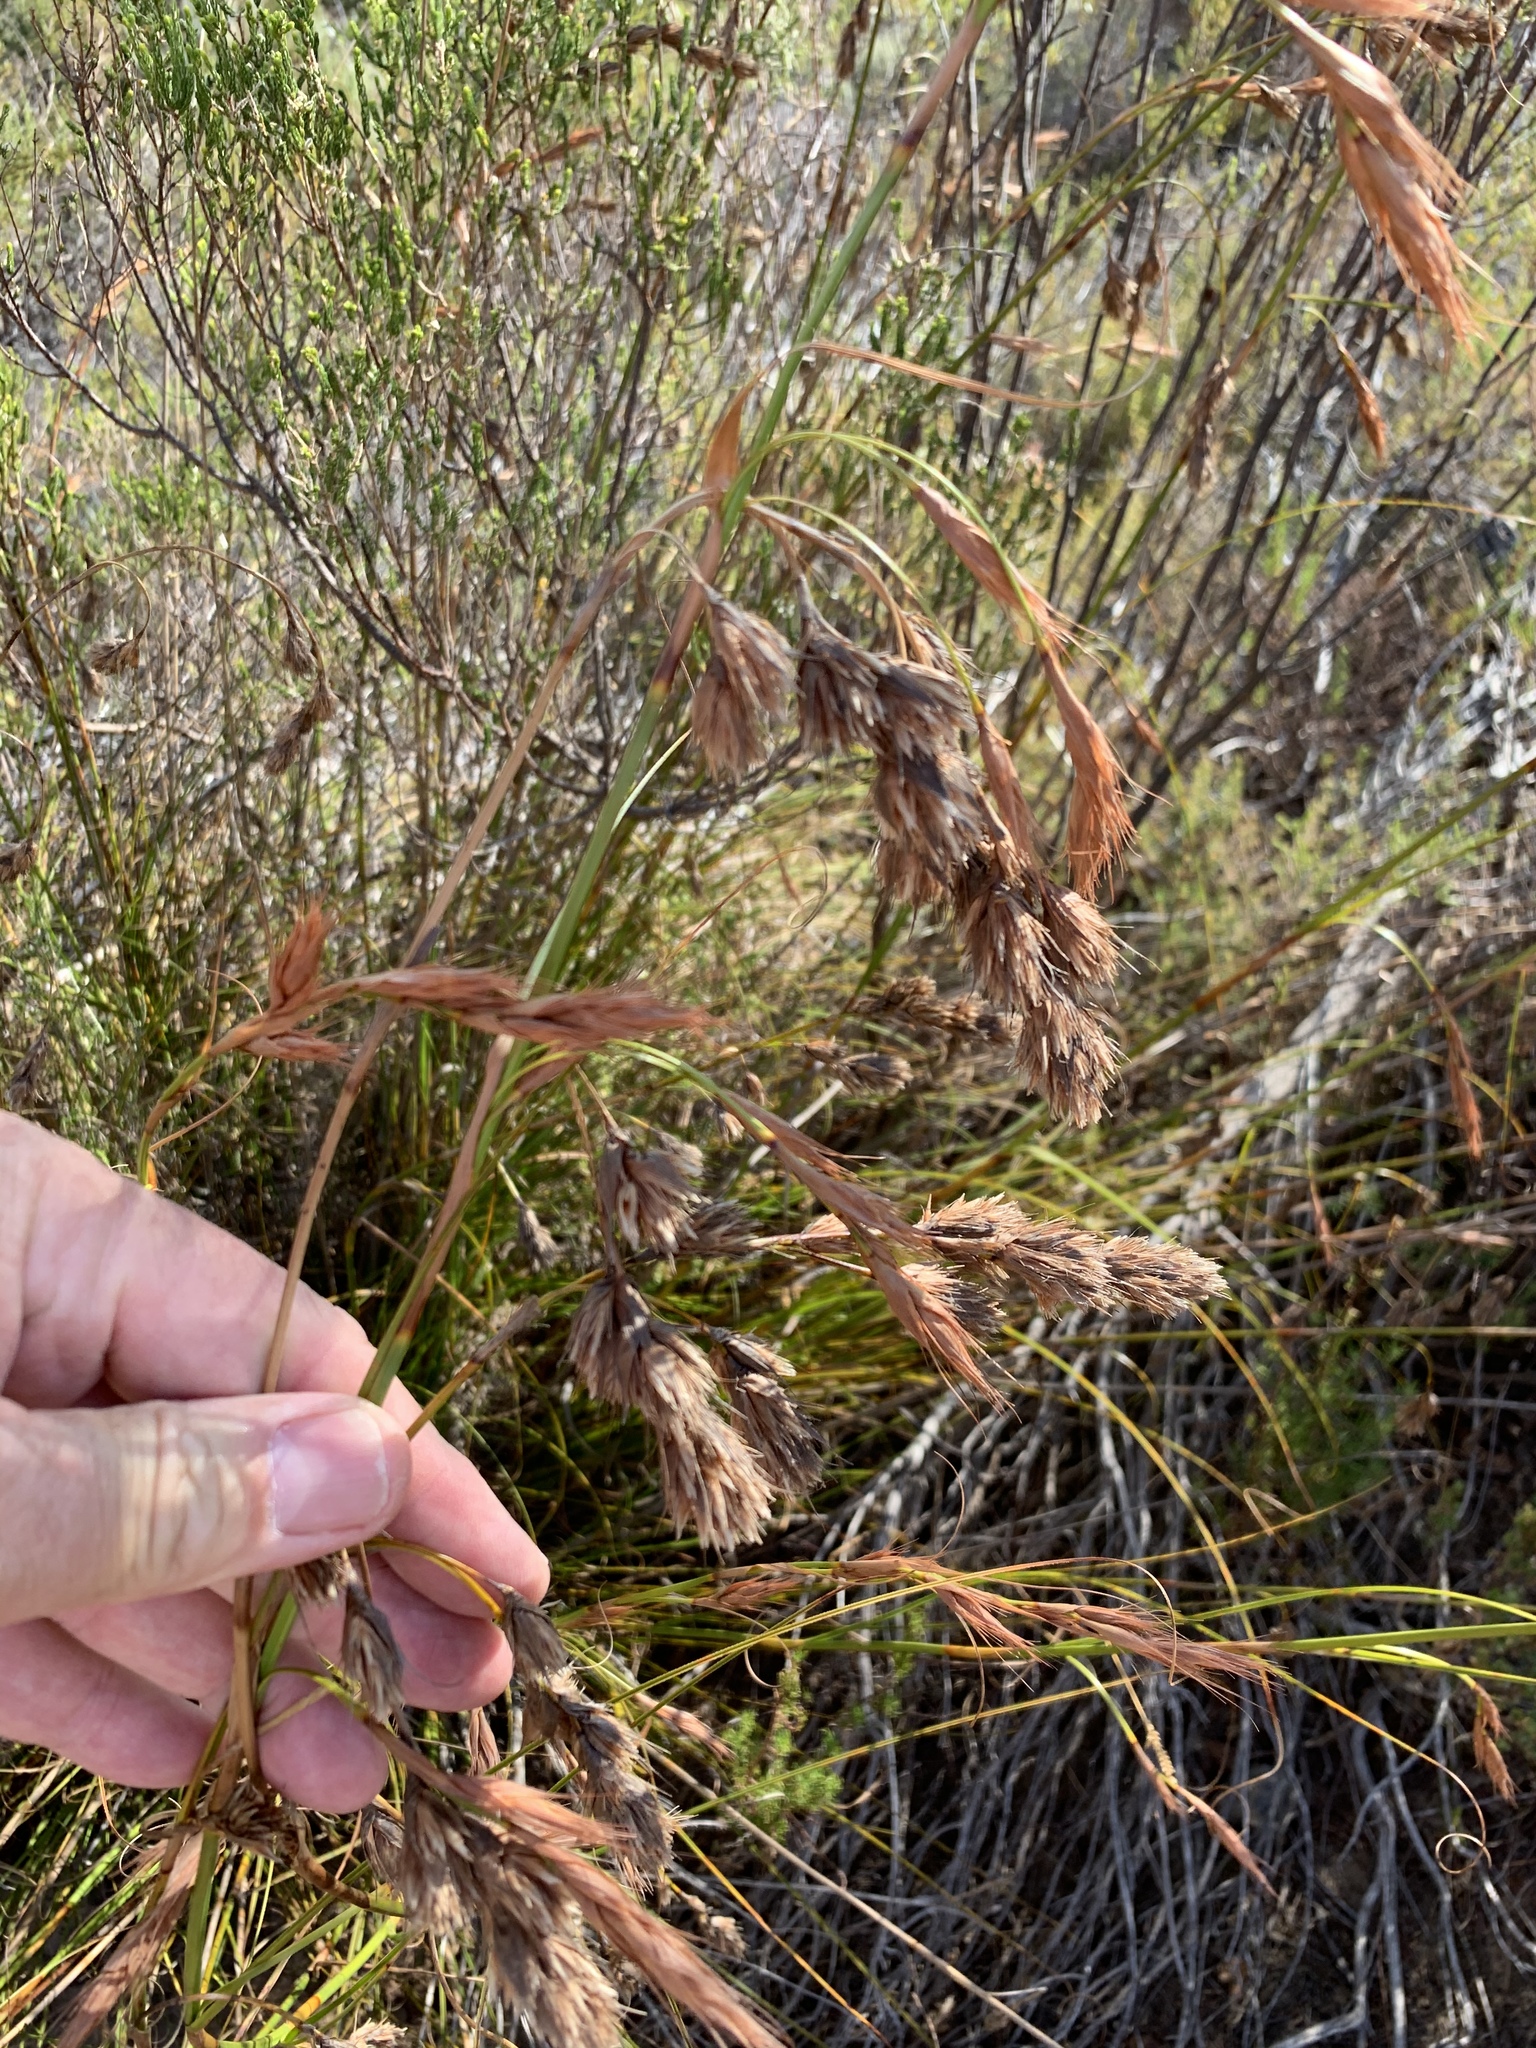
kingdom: Plantae
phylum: Tracheophyta
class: Liliopsida
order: Poales
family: Cyperaceae
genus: Tetraria
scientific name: Tetraria bromoides
